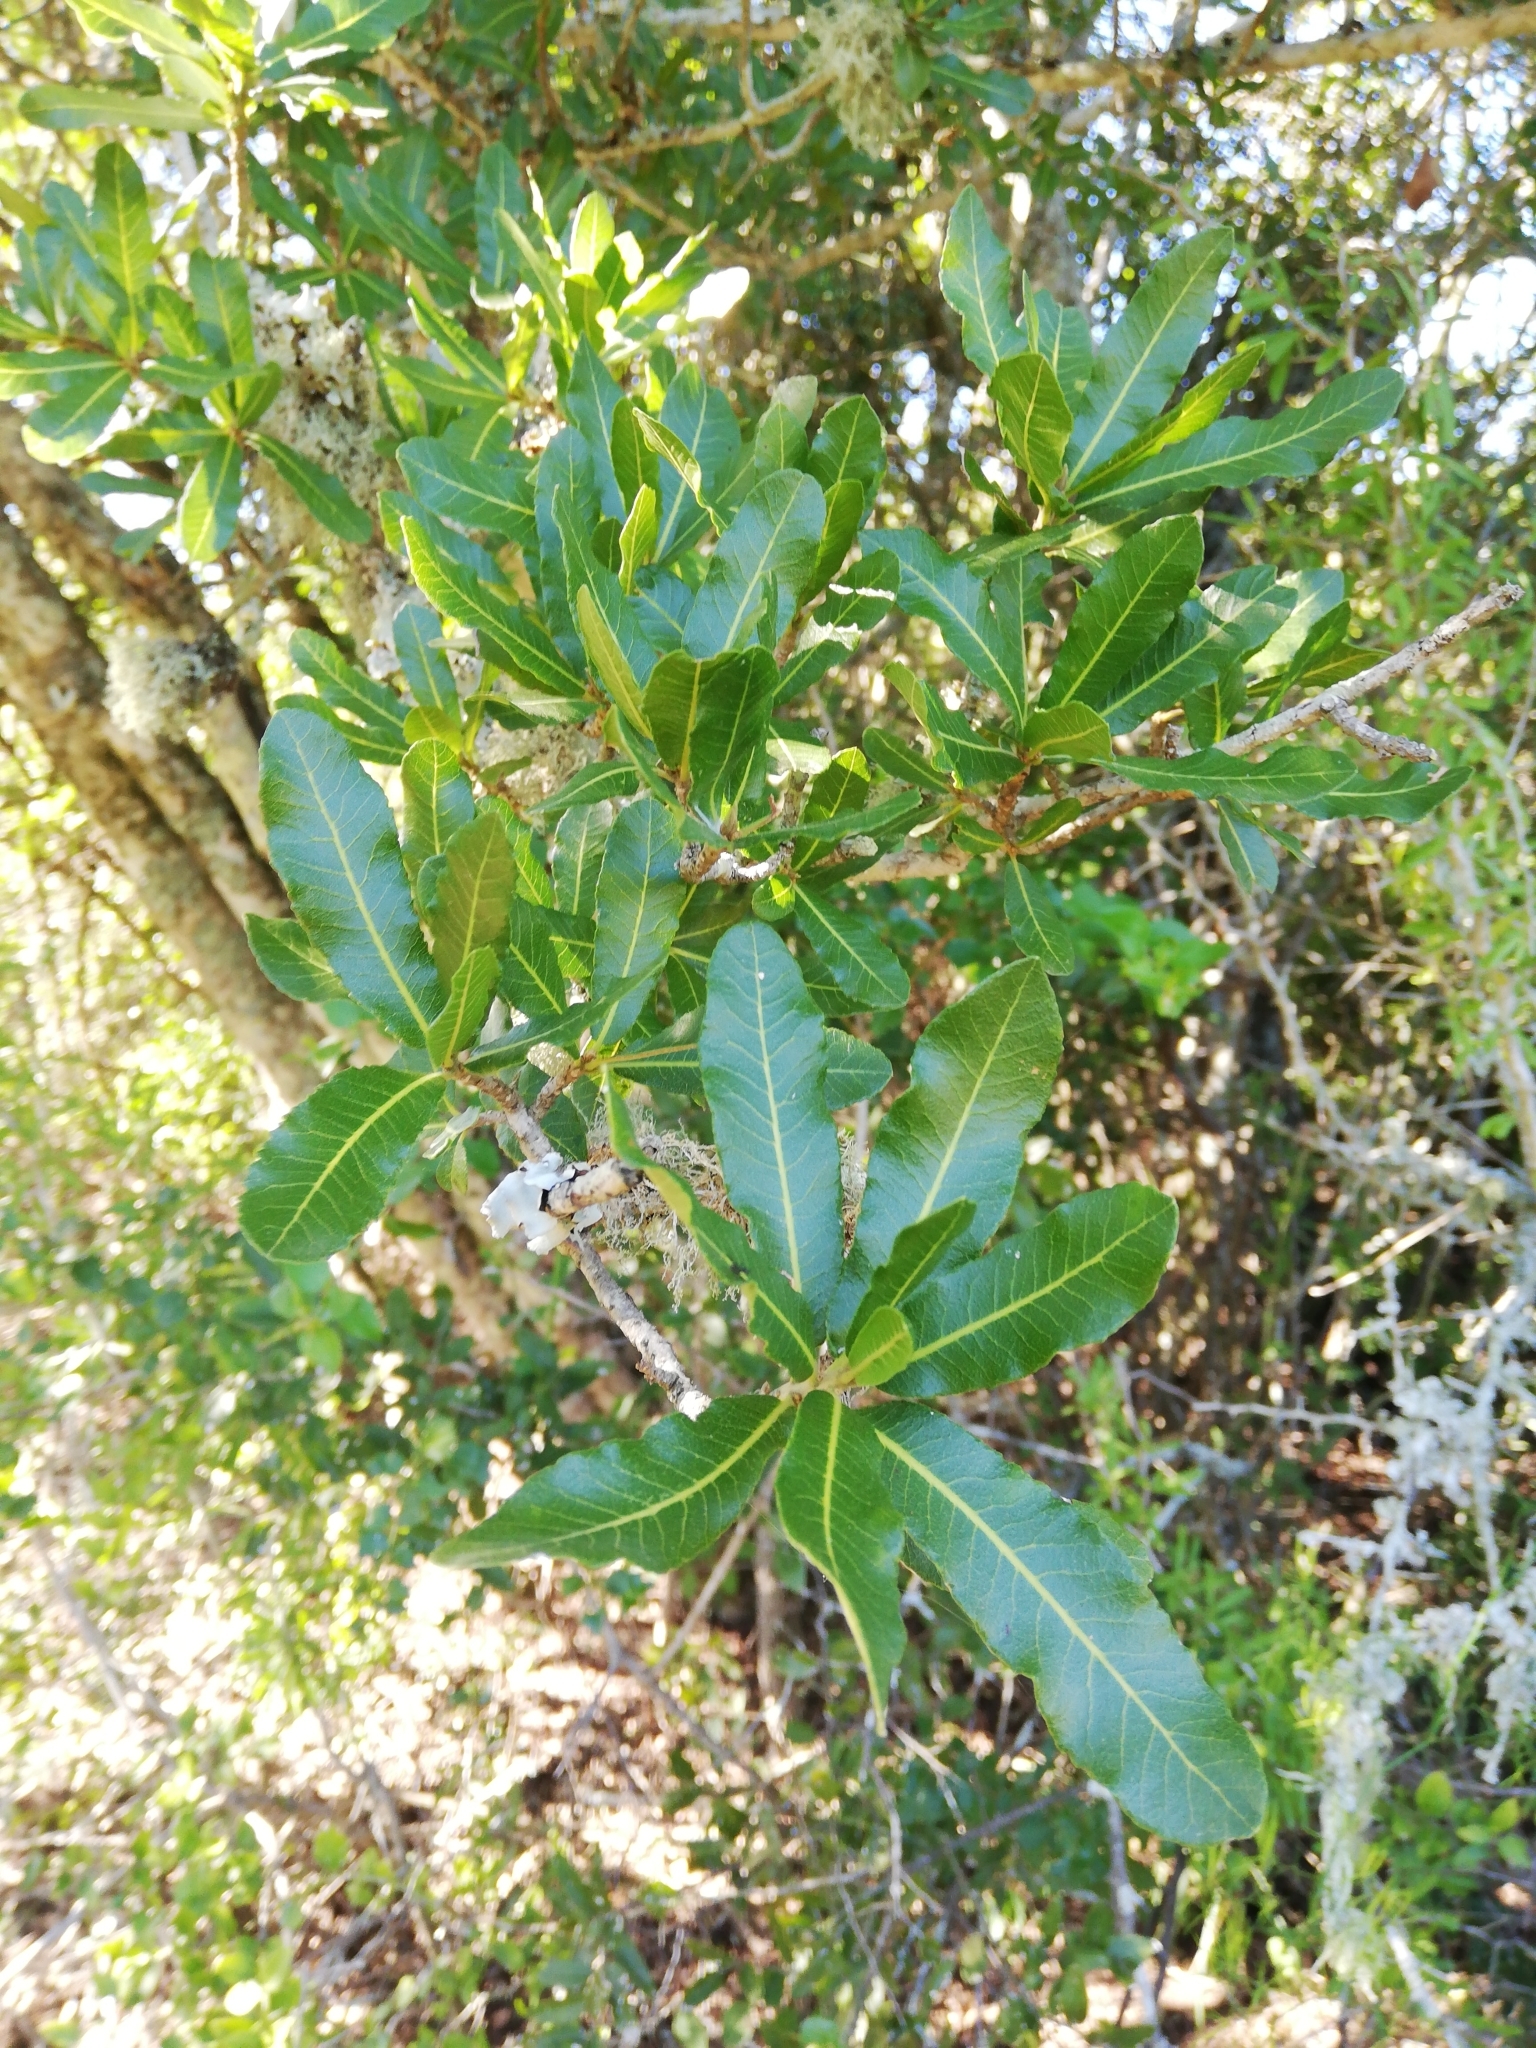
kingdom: Plantae
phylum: Tracheophyta
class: Magnoliopsida
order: Sapindales
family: Sapindaceae
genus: Pappea
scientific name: Pappea capensis
